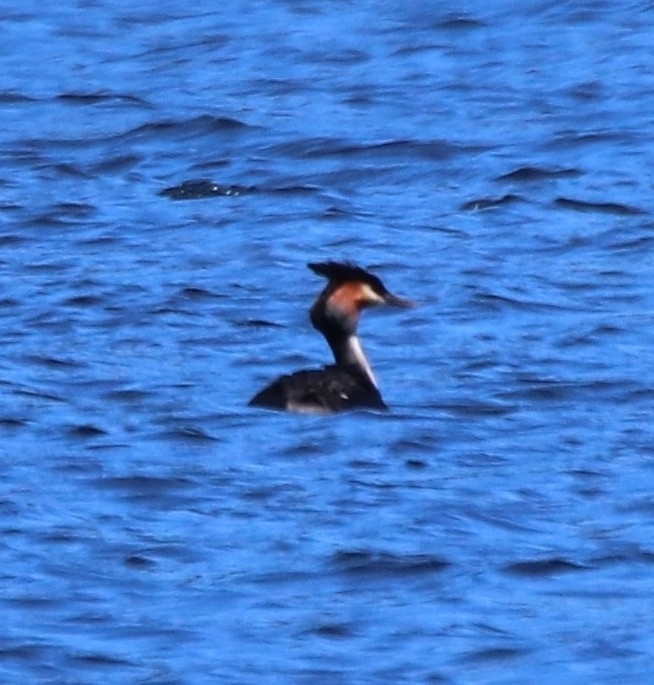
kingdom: Animalia
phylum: Chordata
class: Aves
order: Podicipediformes
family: Podicipedidae
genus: Podiceps
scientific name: Podiceps cristatus
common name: Great crested grebe
